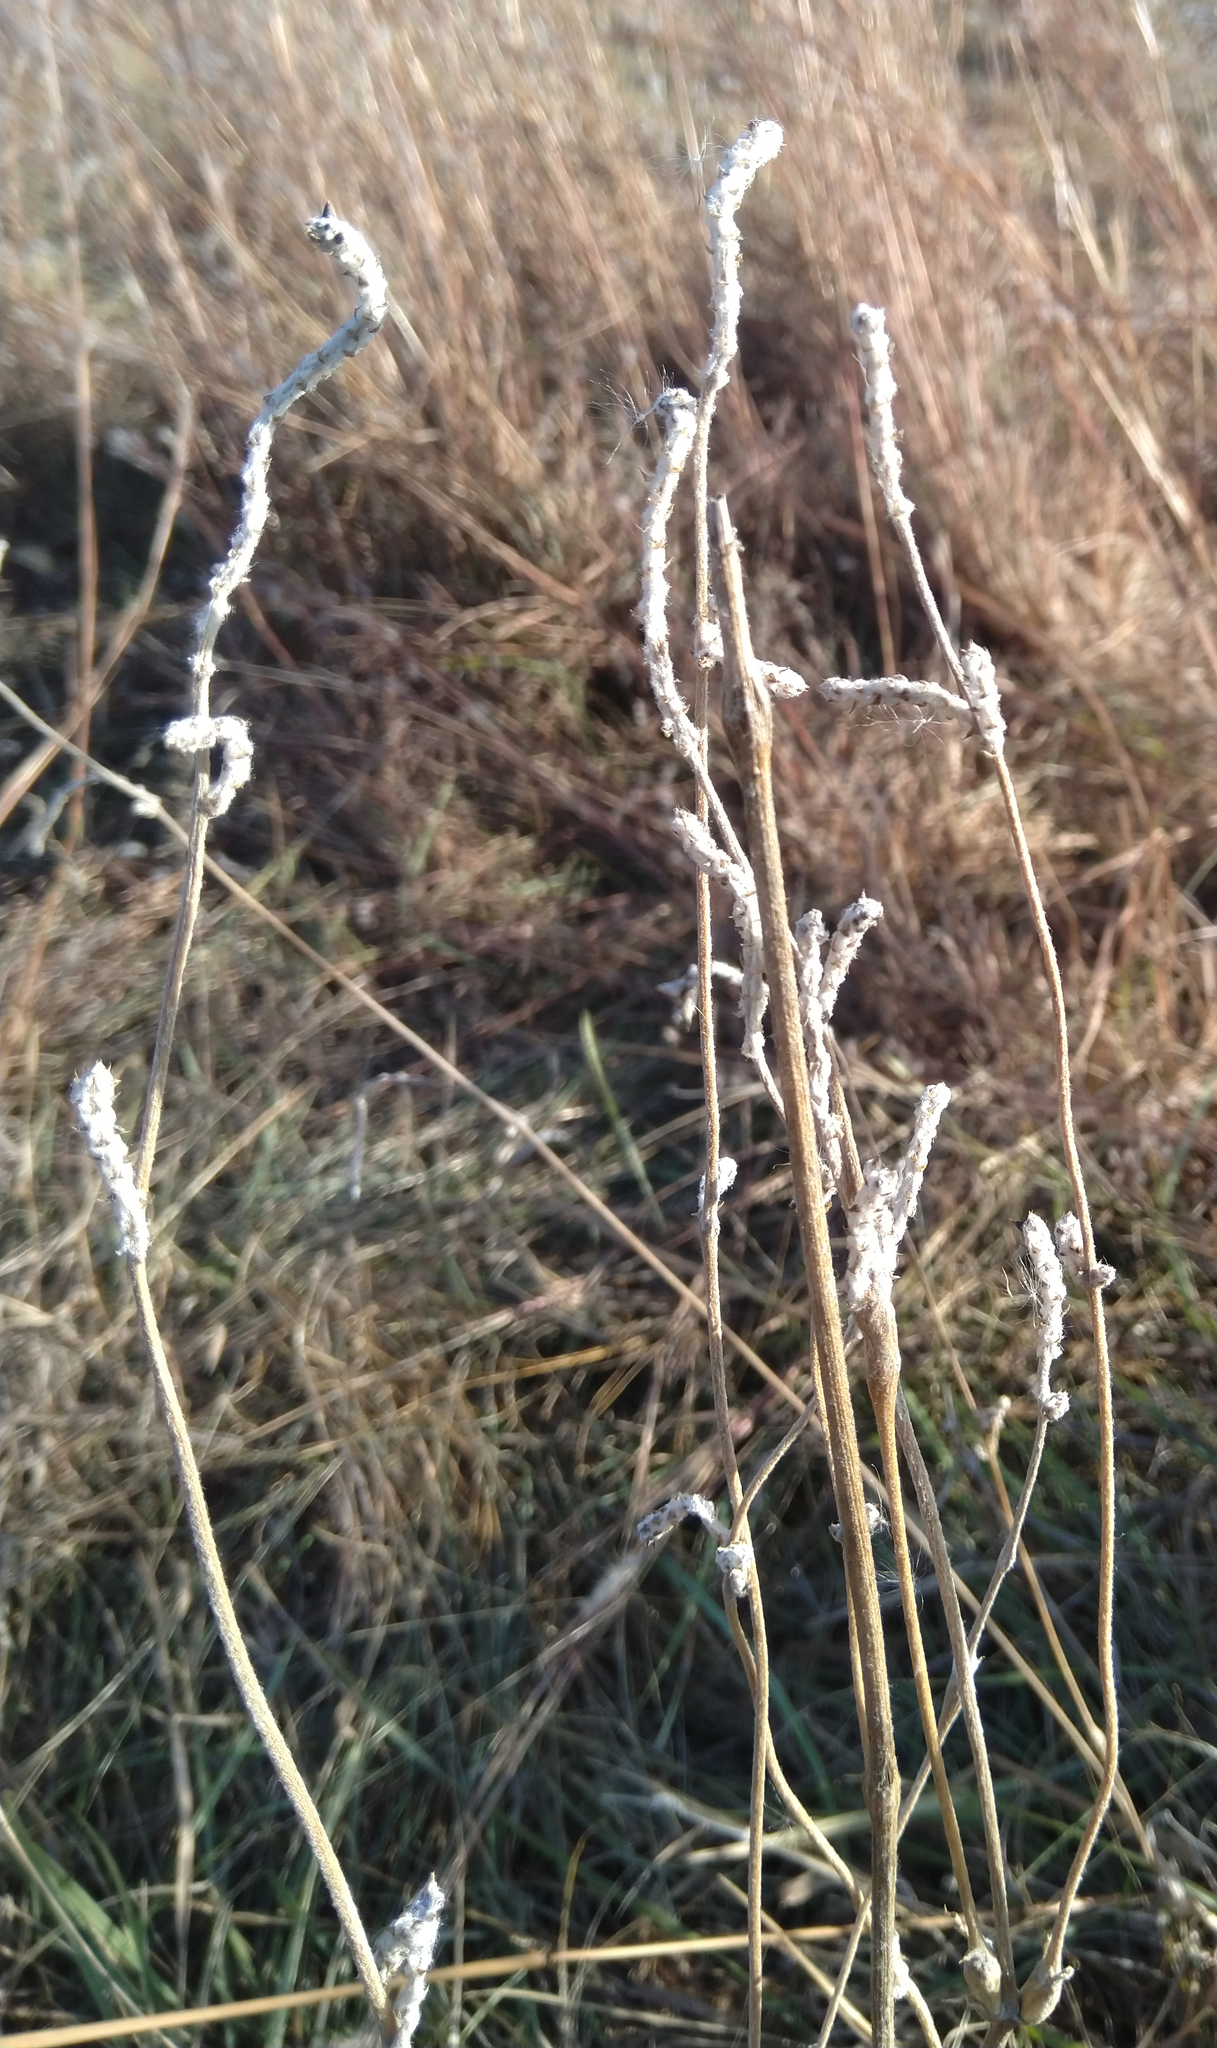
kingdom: Plantae
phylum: Tracheophyta
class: Magnoliopsida
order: Caryophyllales
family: Amaranthaceae
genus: Froelichia
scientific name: Froelichia floridana
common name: Florida snake-cotton
